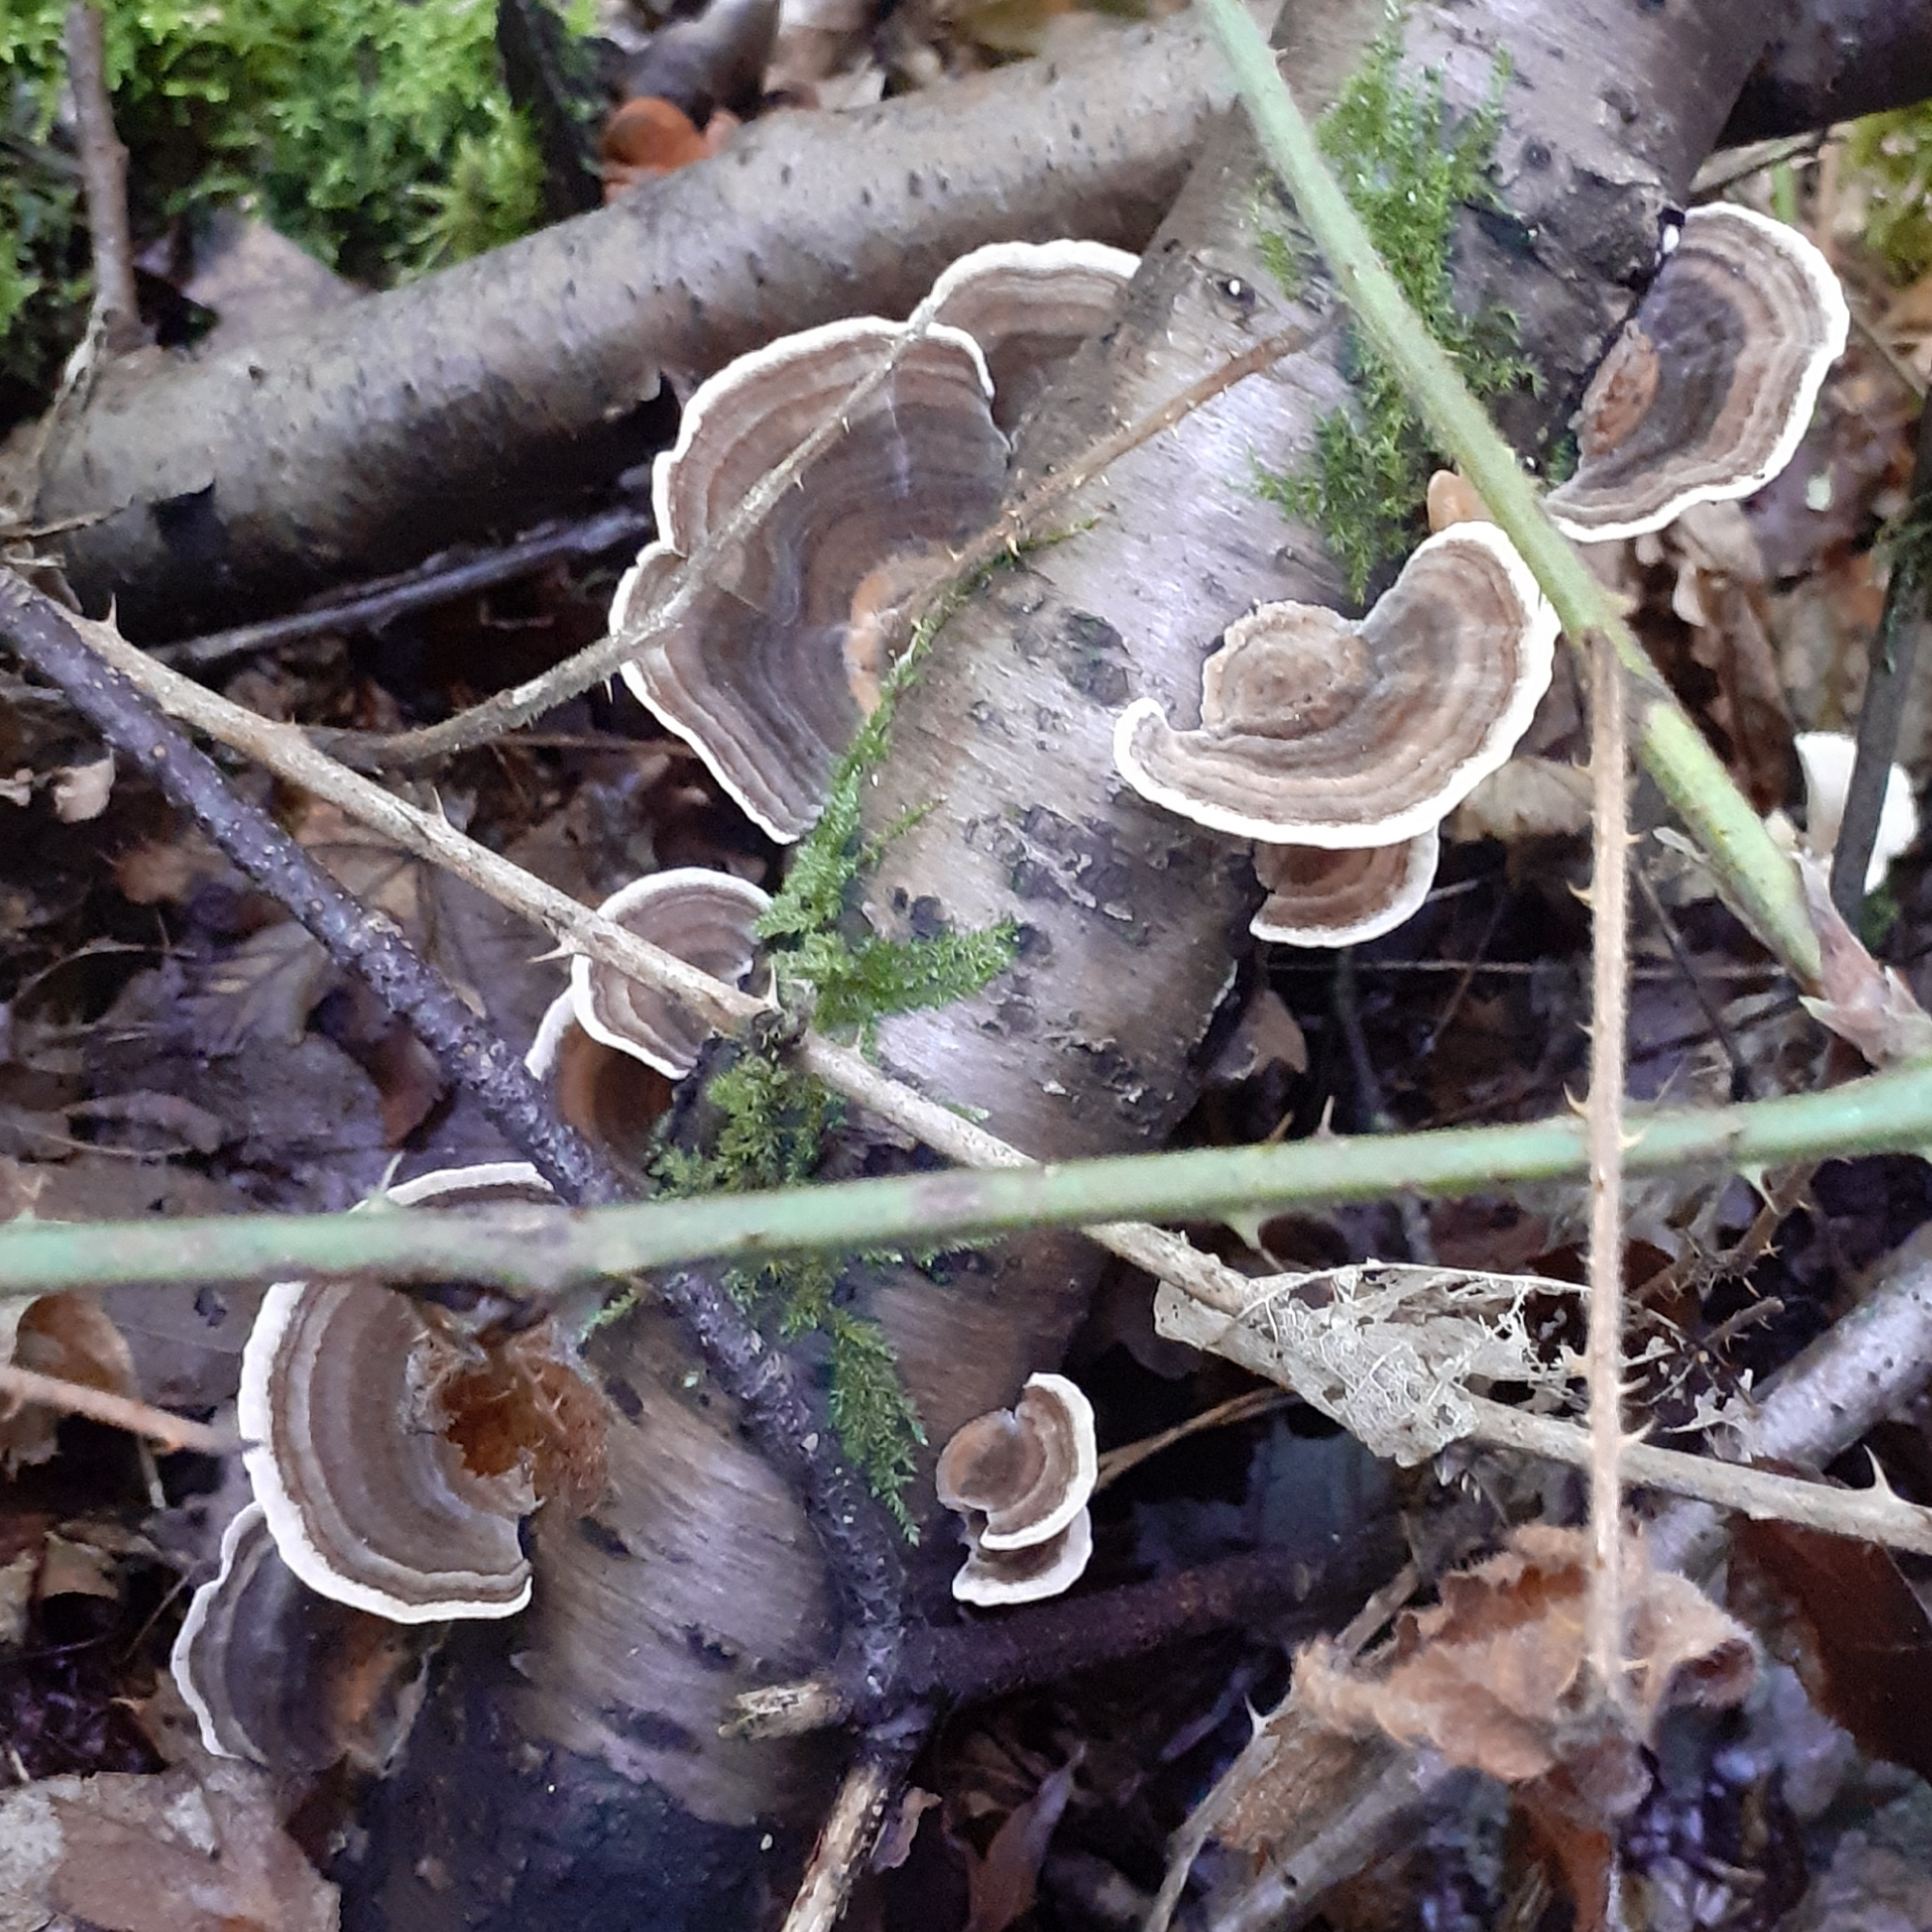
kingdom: Fungi
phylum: Basidiomycota
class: Agaricomycetes
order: Polyporales
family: Polyporaceae
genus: Trametes
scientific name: Trametes versicolor
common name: Turkeytail
